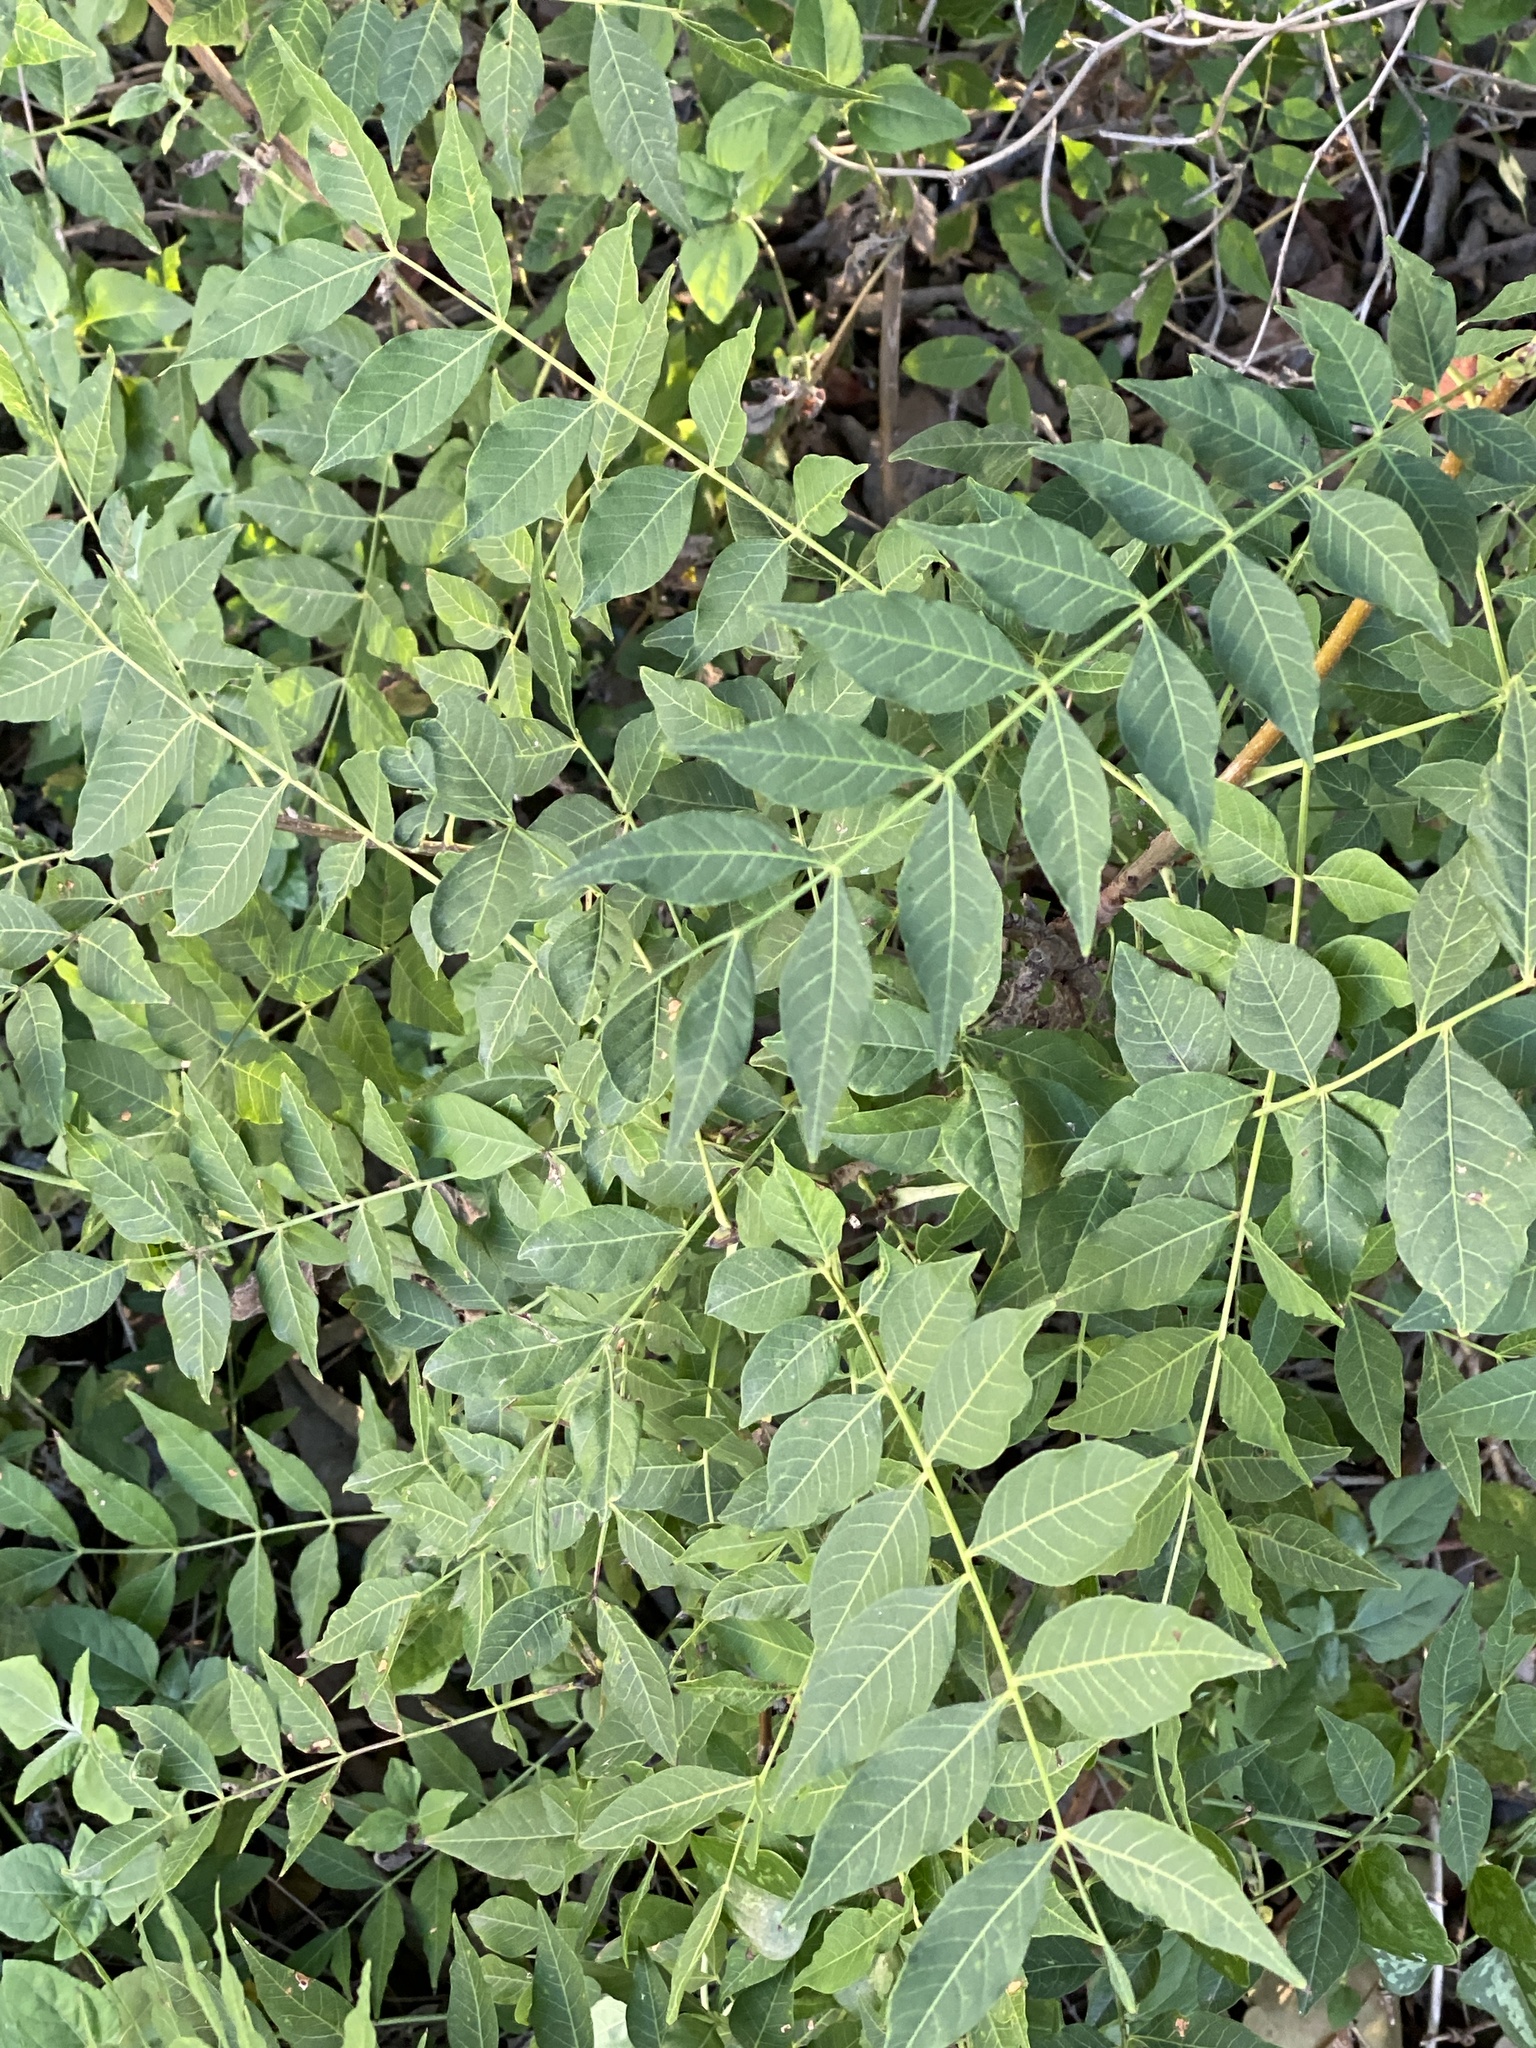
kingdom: Plantae
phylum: Tracheophyta
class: Magnoliopsida
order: Sapindales
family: Anacardiaceae
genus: Pistacia
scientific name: Pistacia chinensis
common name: Chinese pistache
